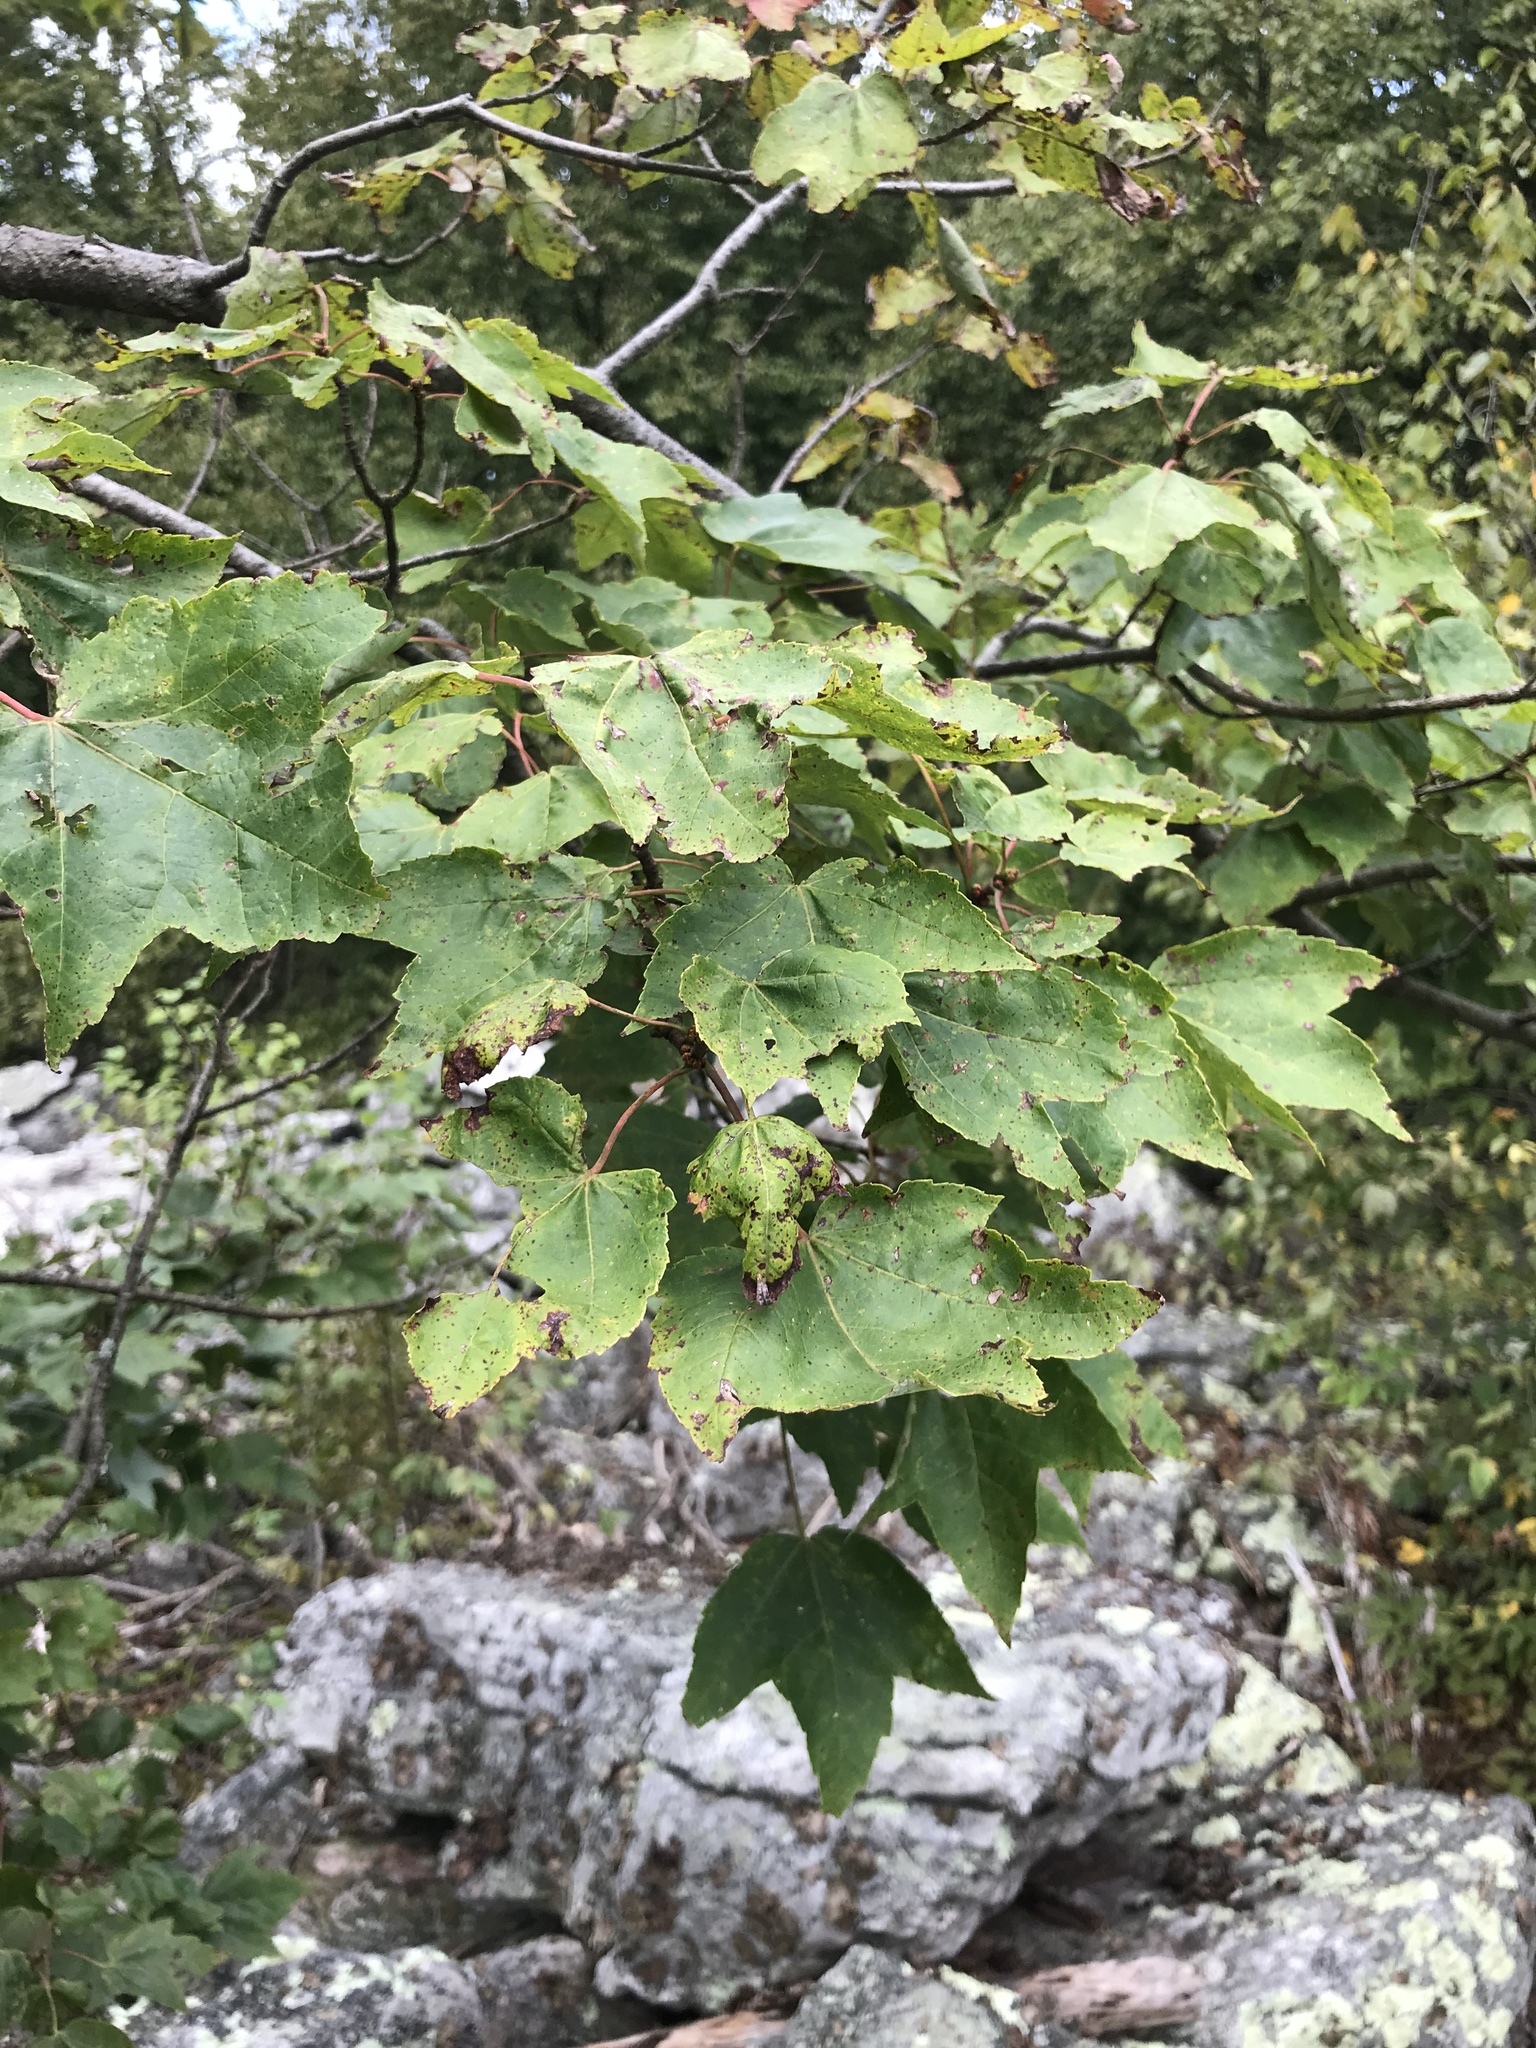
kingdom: Plantae
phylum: Tracheophyta
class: Magnoliopsida
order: Sapindales
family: Sapindaceae
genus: Acer
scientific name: Acer rubrum
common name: Red maple
